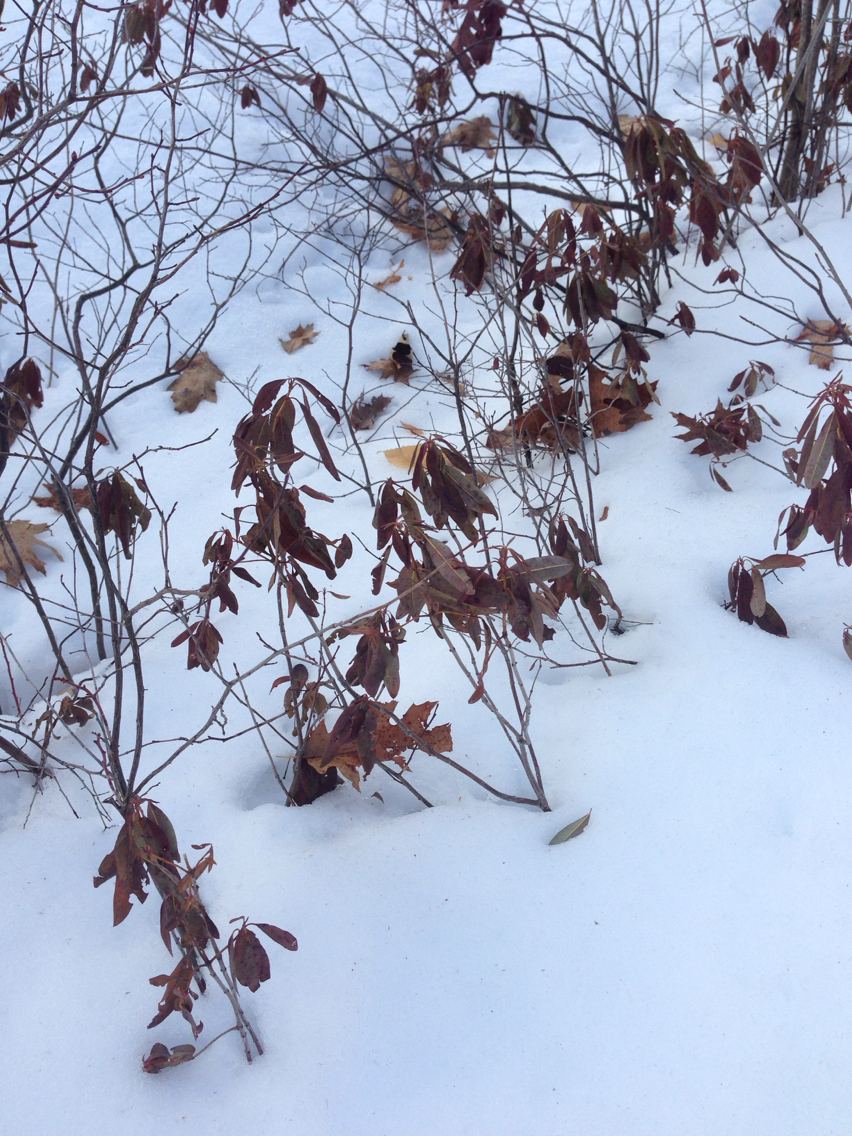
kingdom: Plantae
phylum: Tracheophyta
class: Magnoliopsida
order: Ericales
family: Ericaceae
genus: Kalmia
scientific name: Kalmia angustifolia
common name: Sheep-laurel
